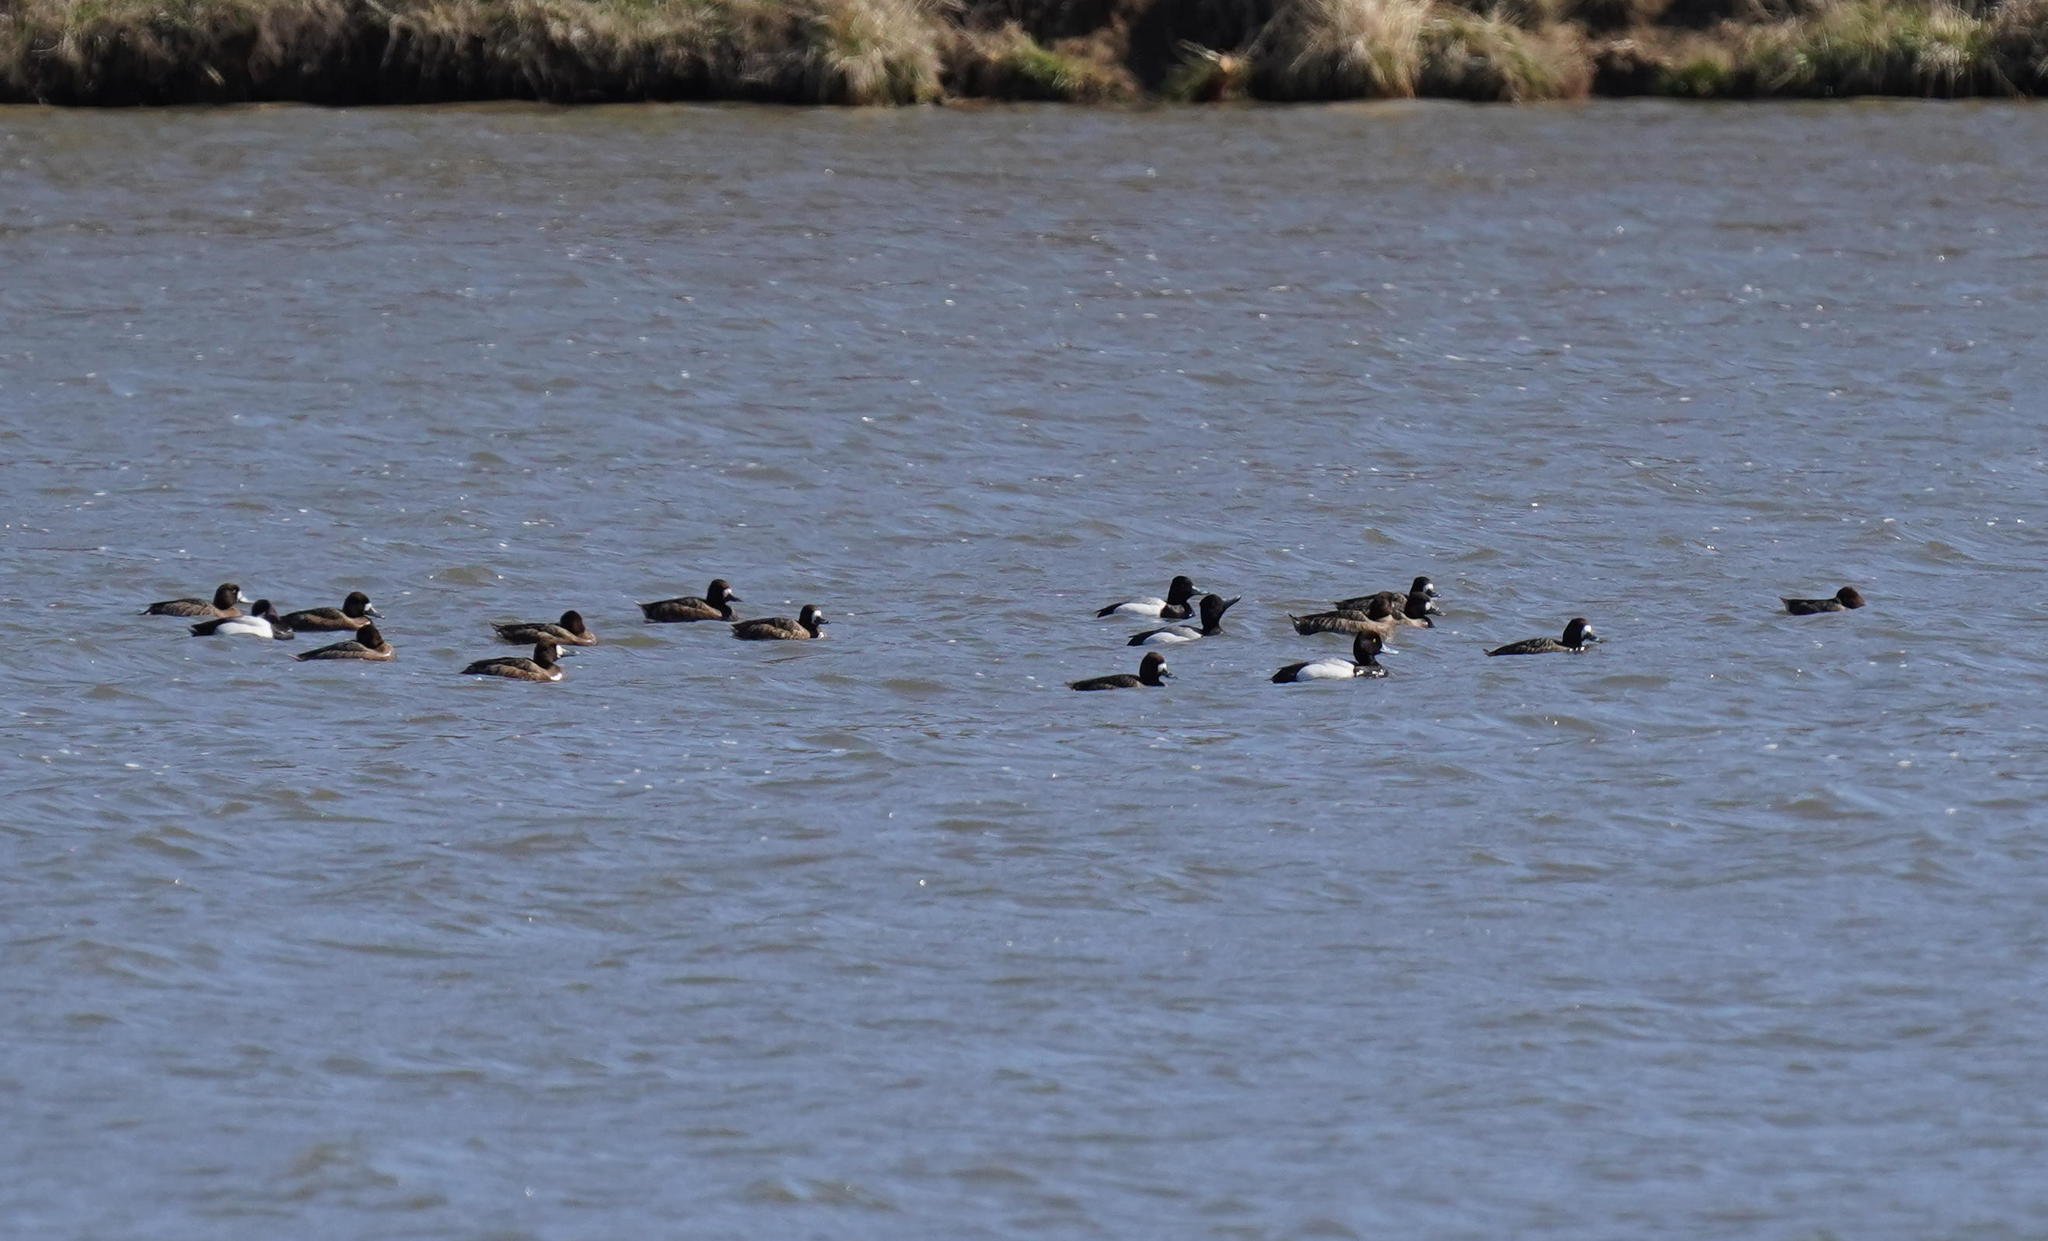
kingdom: Animalia
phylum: Chordata
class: Aves
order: Anseriformes
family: Anatidae
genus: Aythya
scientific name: Aythya affinis
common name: Lesser scaup
